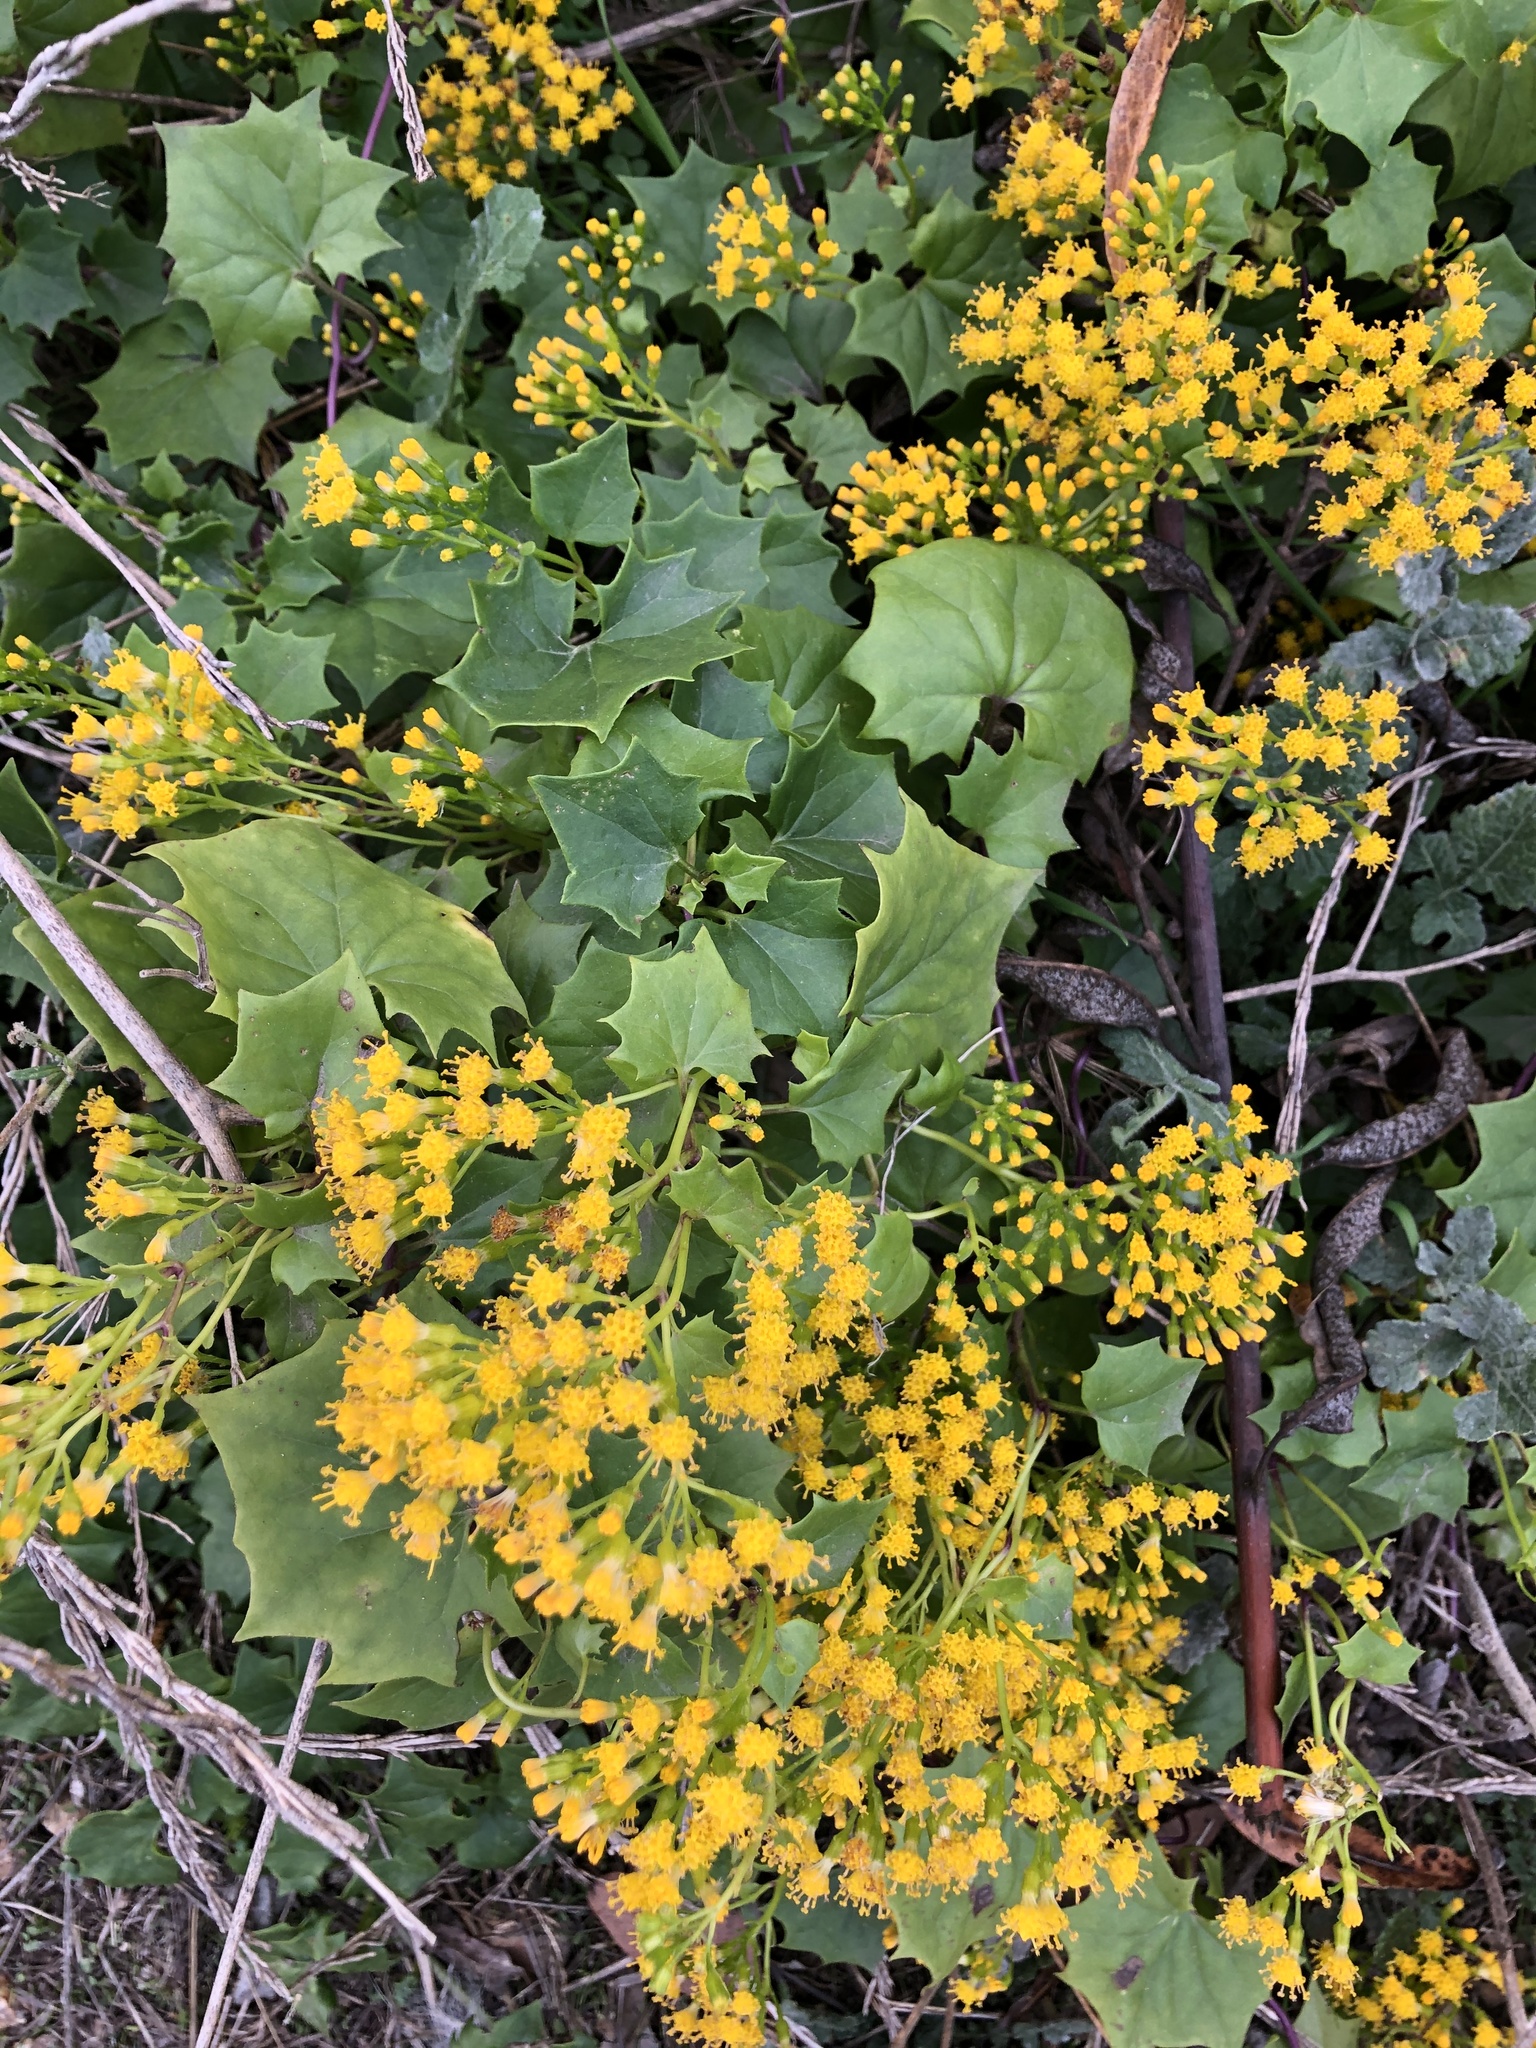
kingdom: Plantae
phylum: Tracheophyta
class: Magnoliopsida
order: Asterales
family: Asteraceae
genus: Delairea
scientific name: Delairea odorata
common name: Cape-ivy
